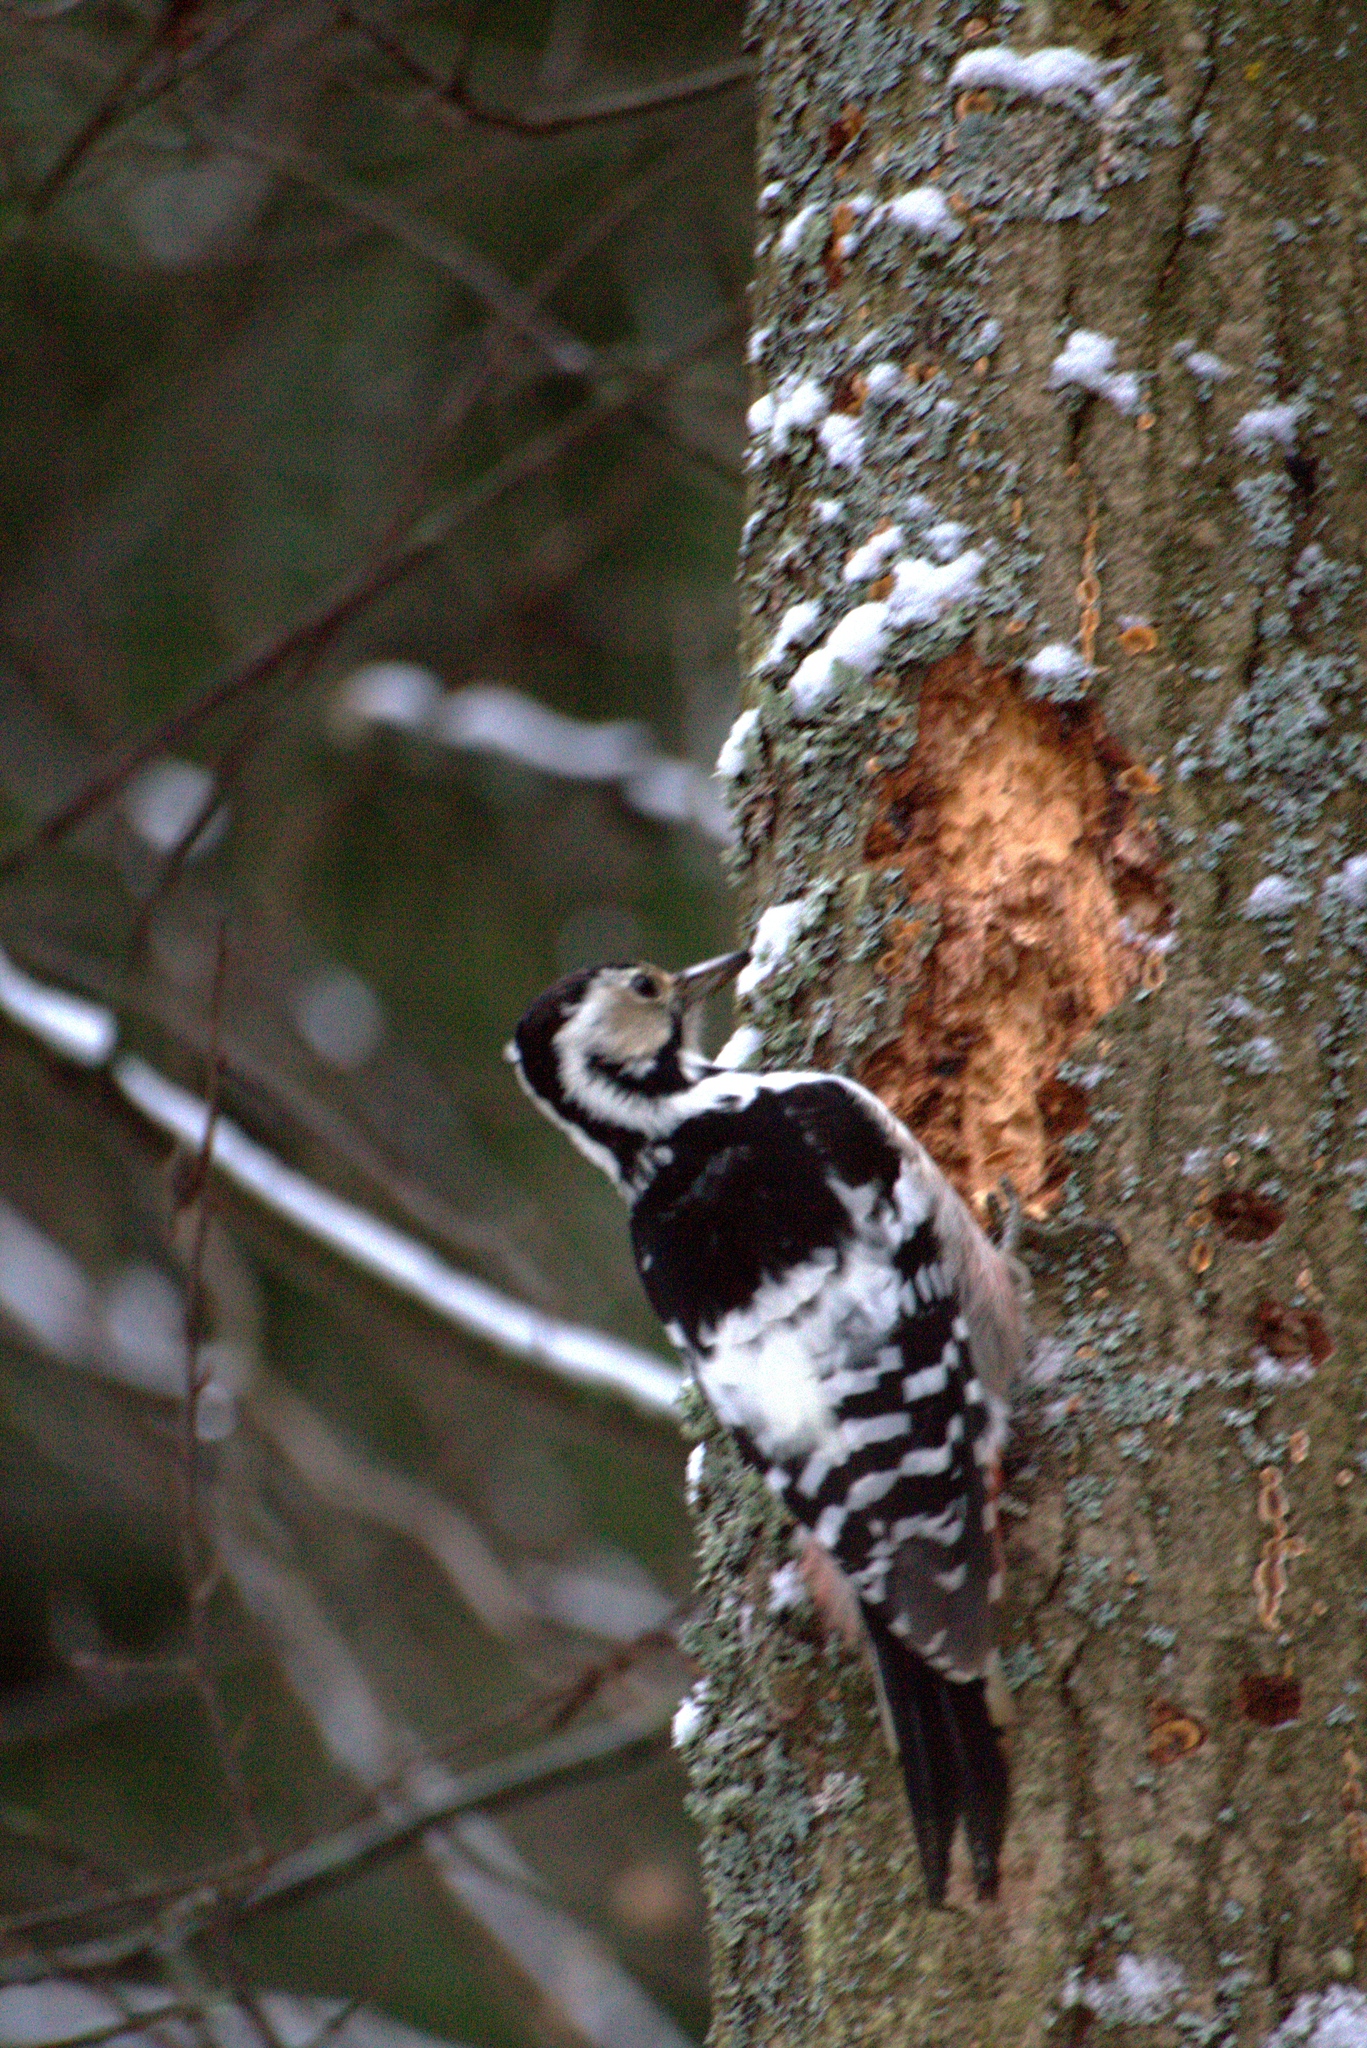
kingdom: Animalia
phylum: Chordata
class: Aves
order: Piciformes
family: Picidae
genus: Dendrocopos
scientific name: Dendrocopos leucotos
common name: White-backed woodpecker
